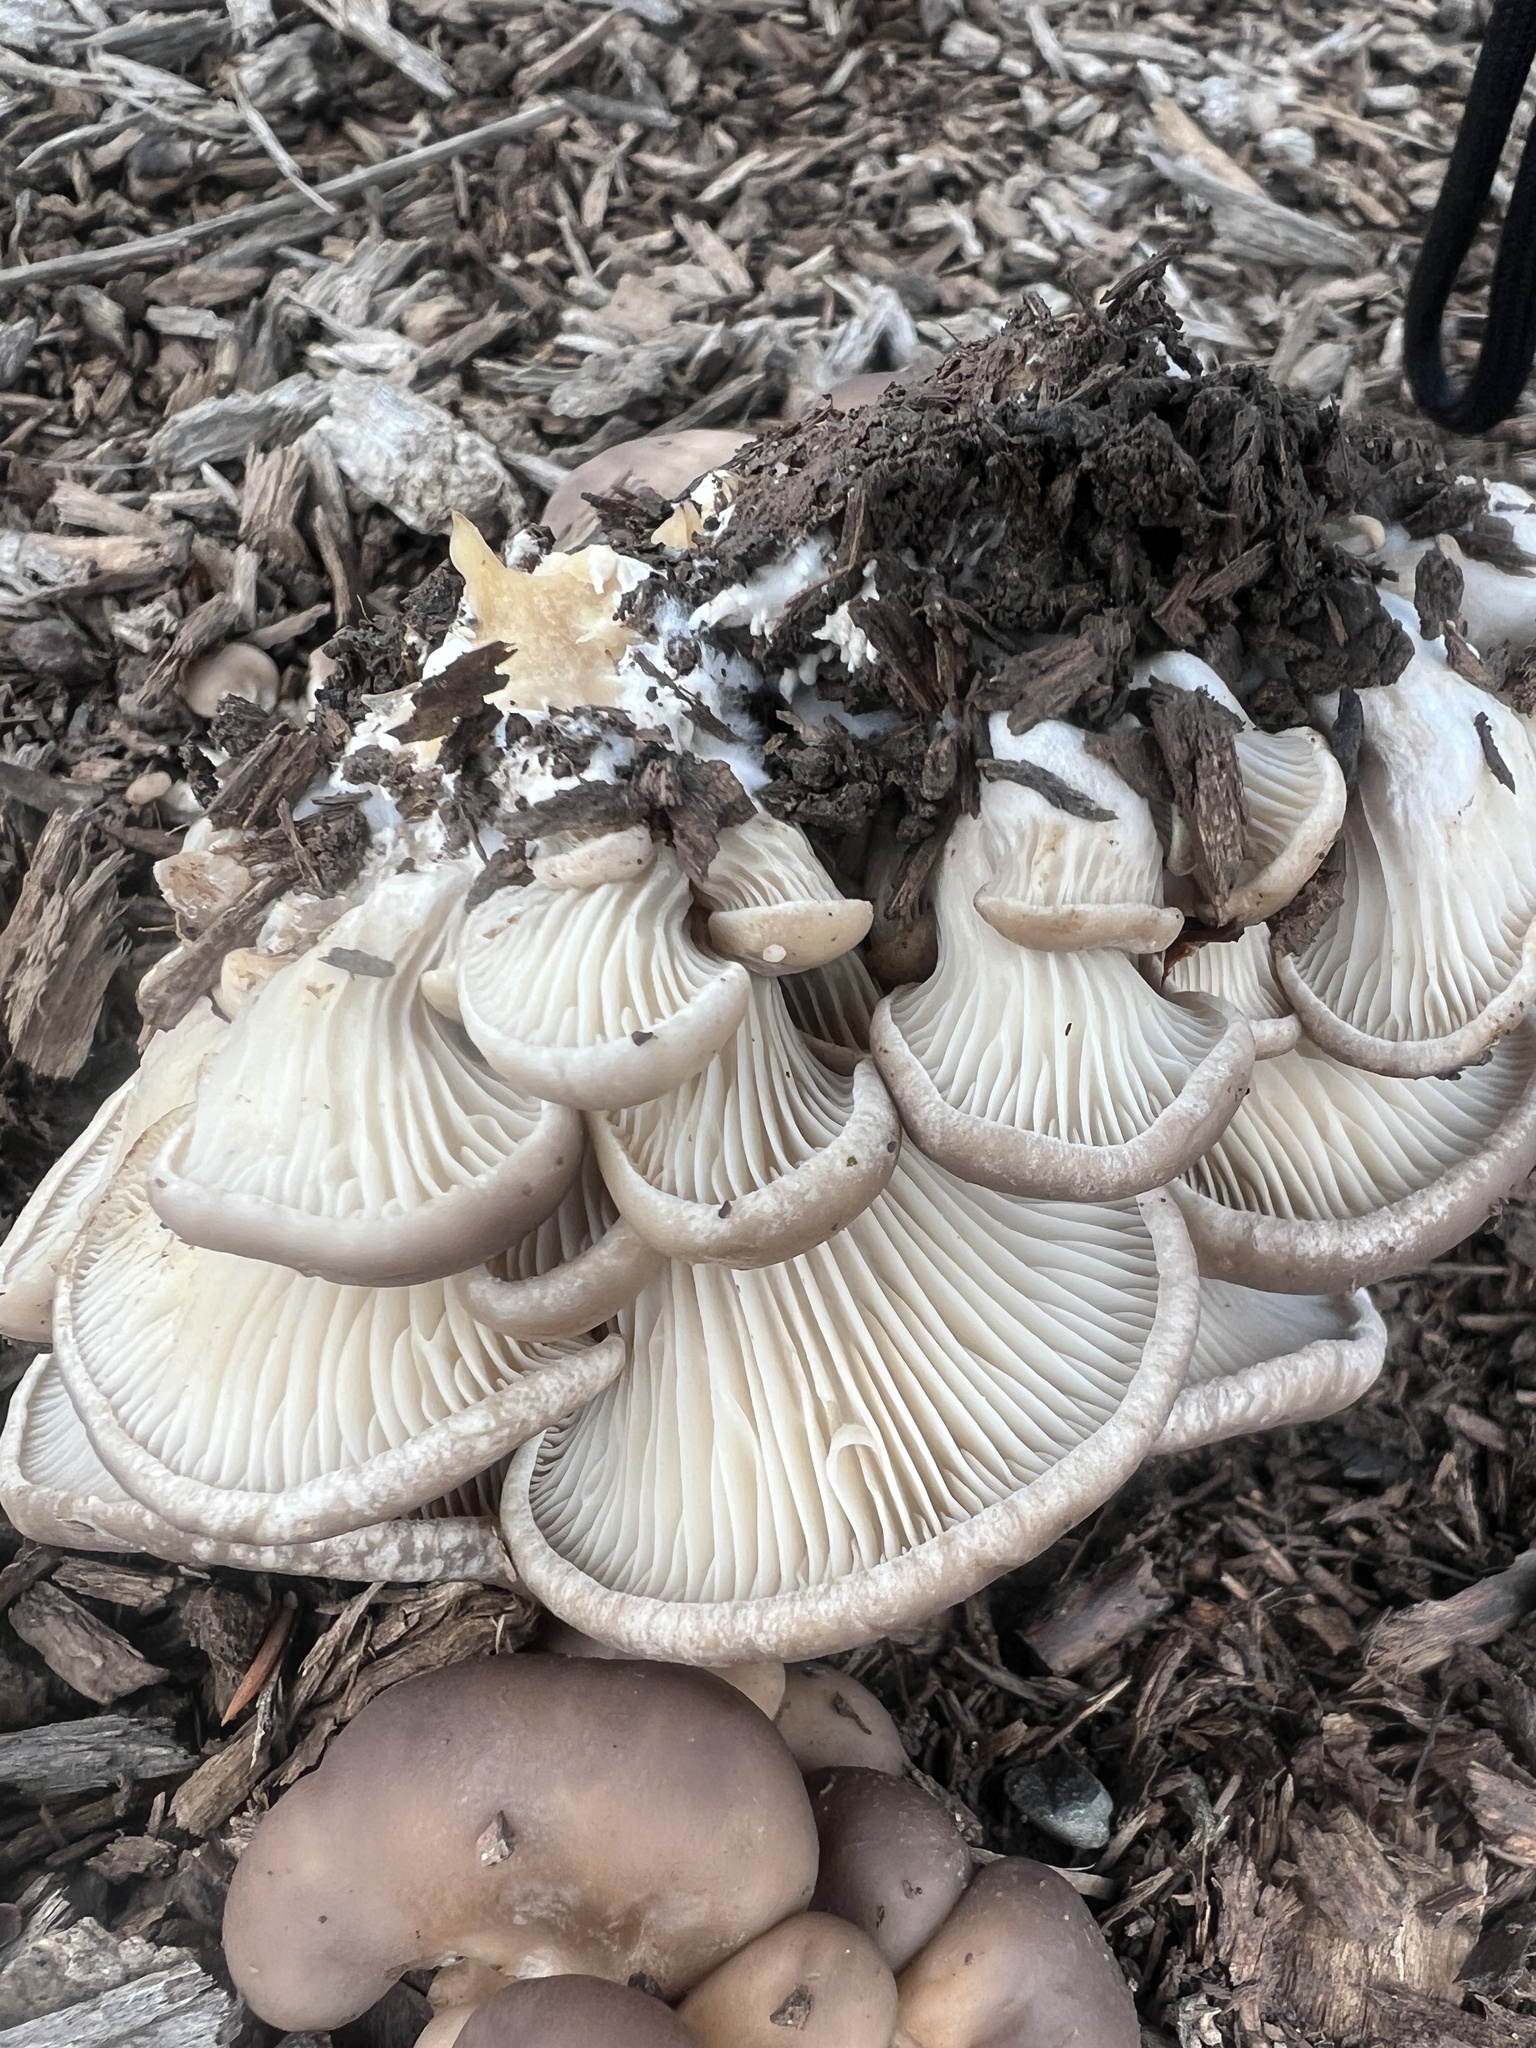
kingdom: Fungi
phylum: Basidiomycota
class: Agaricomycetes
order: Agaricales
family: Pleurotaceae
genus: Pleurotus
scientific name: Pleurotus ostreatus
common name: Oyster mushroom
